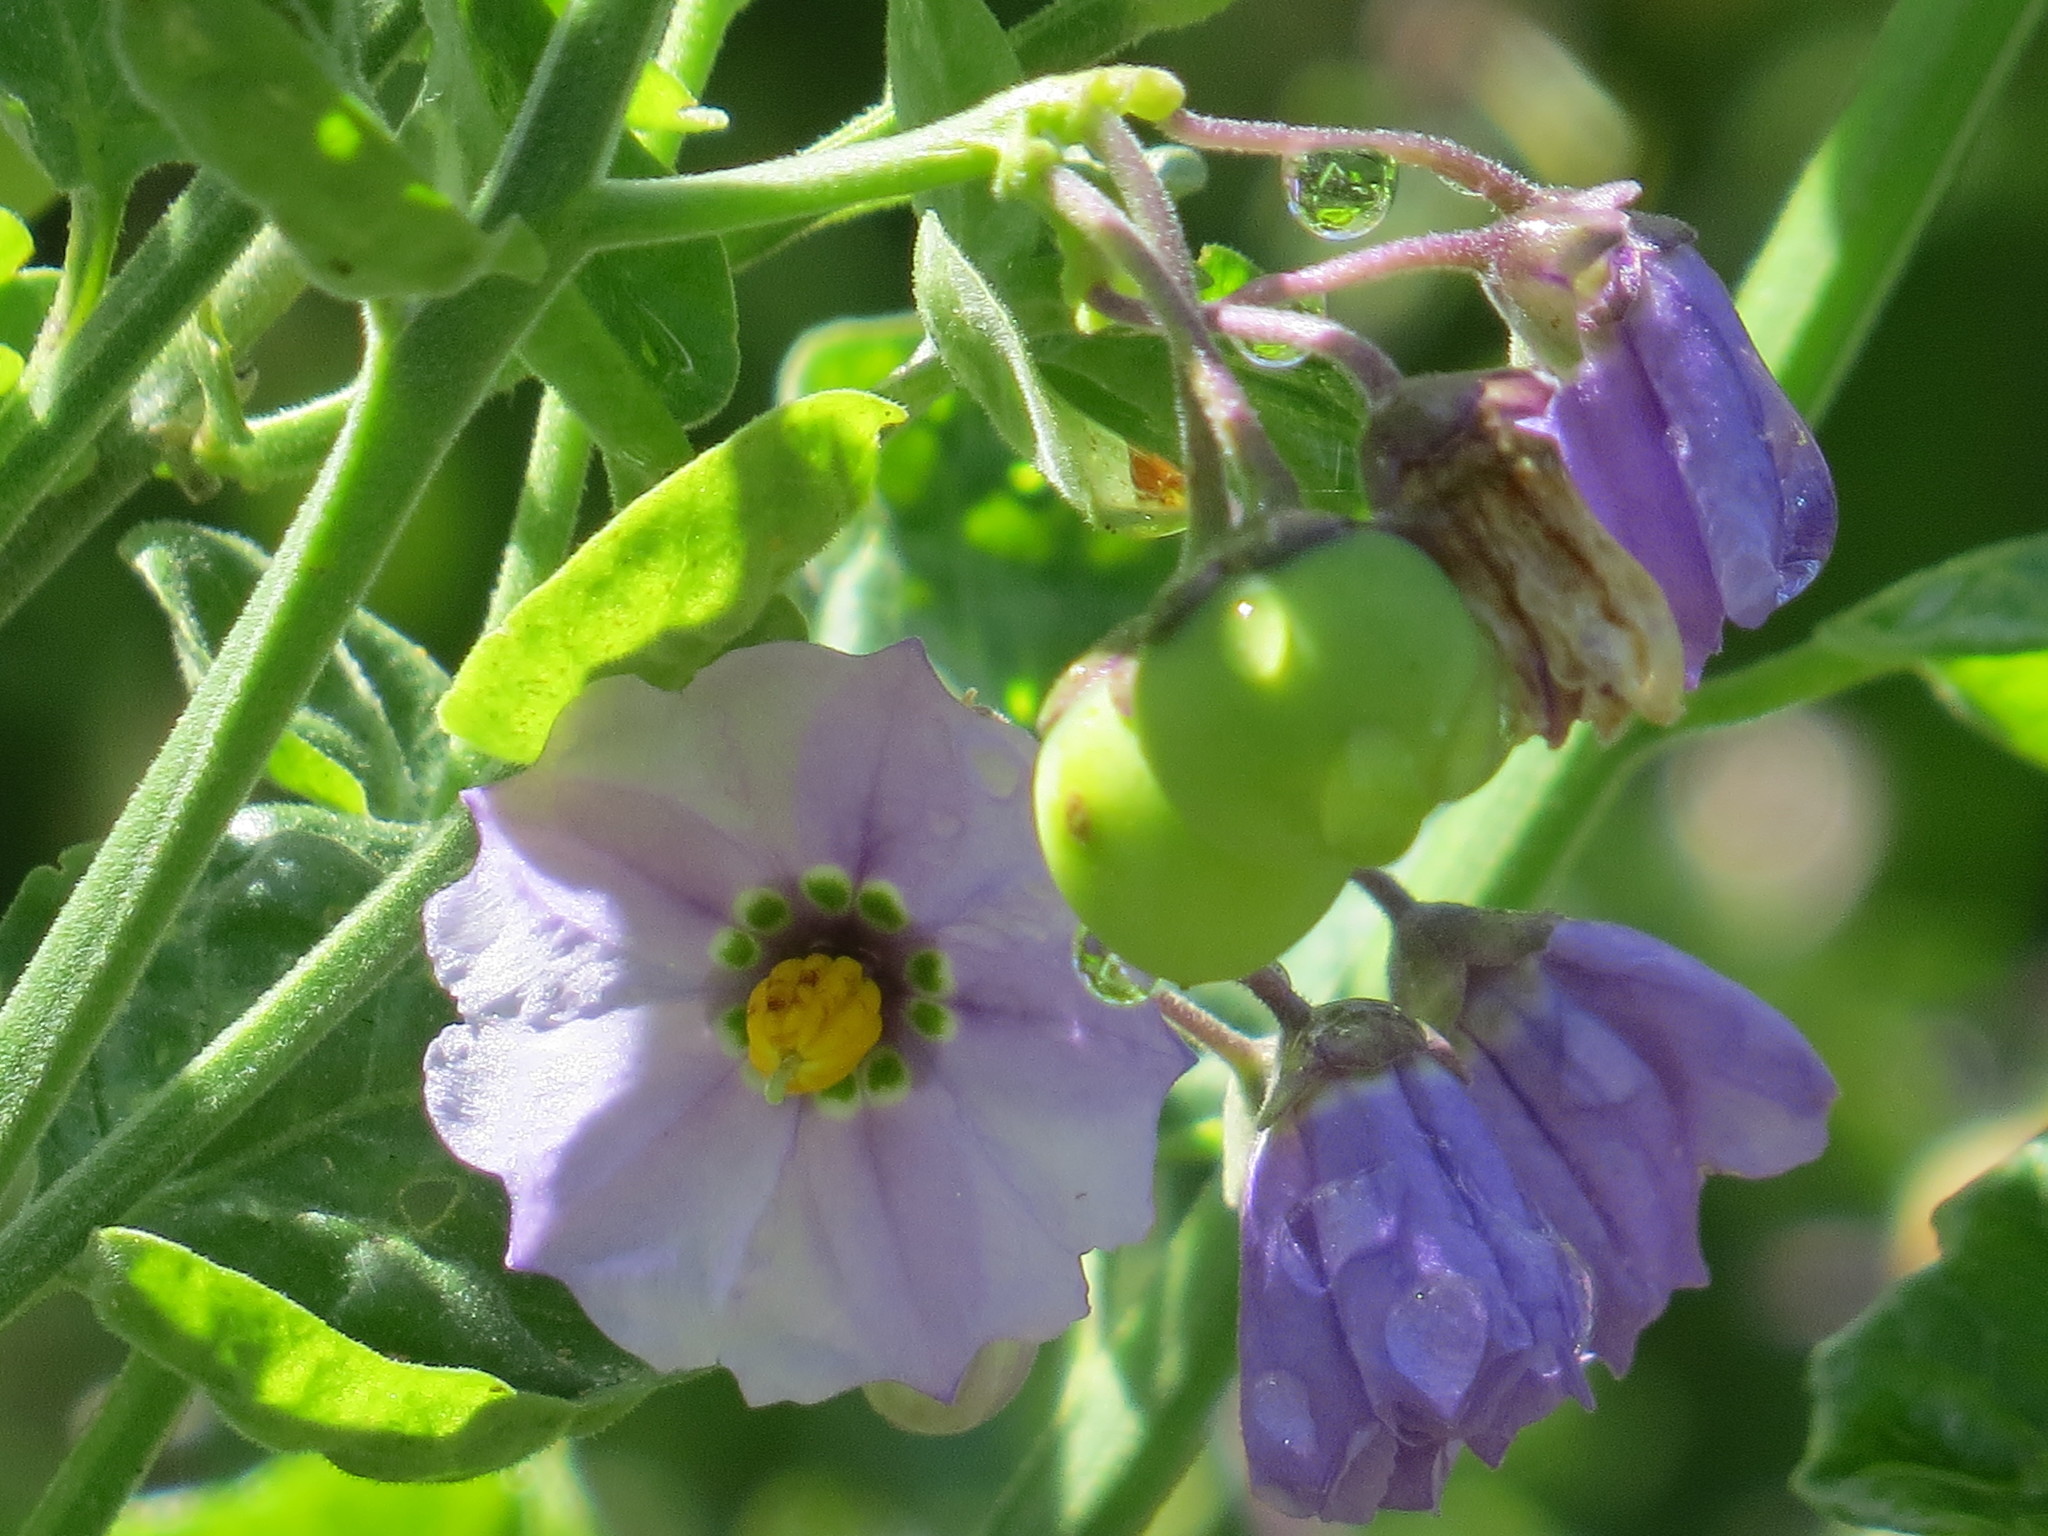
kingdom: Plantae
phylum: Tracheophyta
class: Magnoliopsida
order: Solanales
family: Solanaceae
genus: Solanum
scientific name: Solanum umbelliferum
